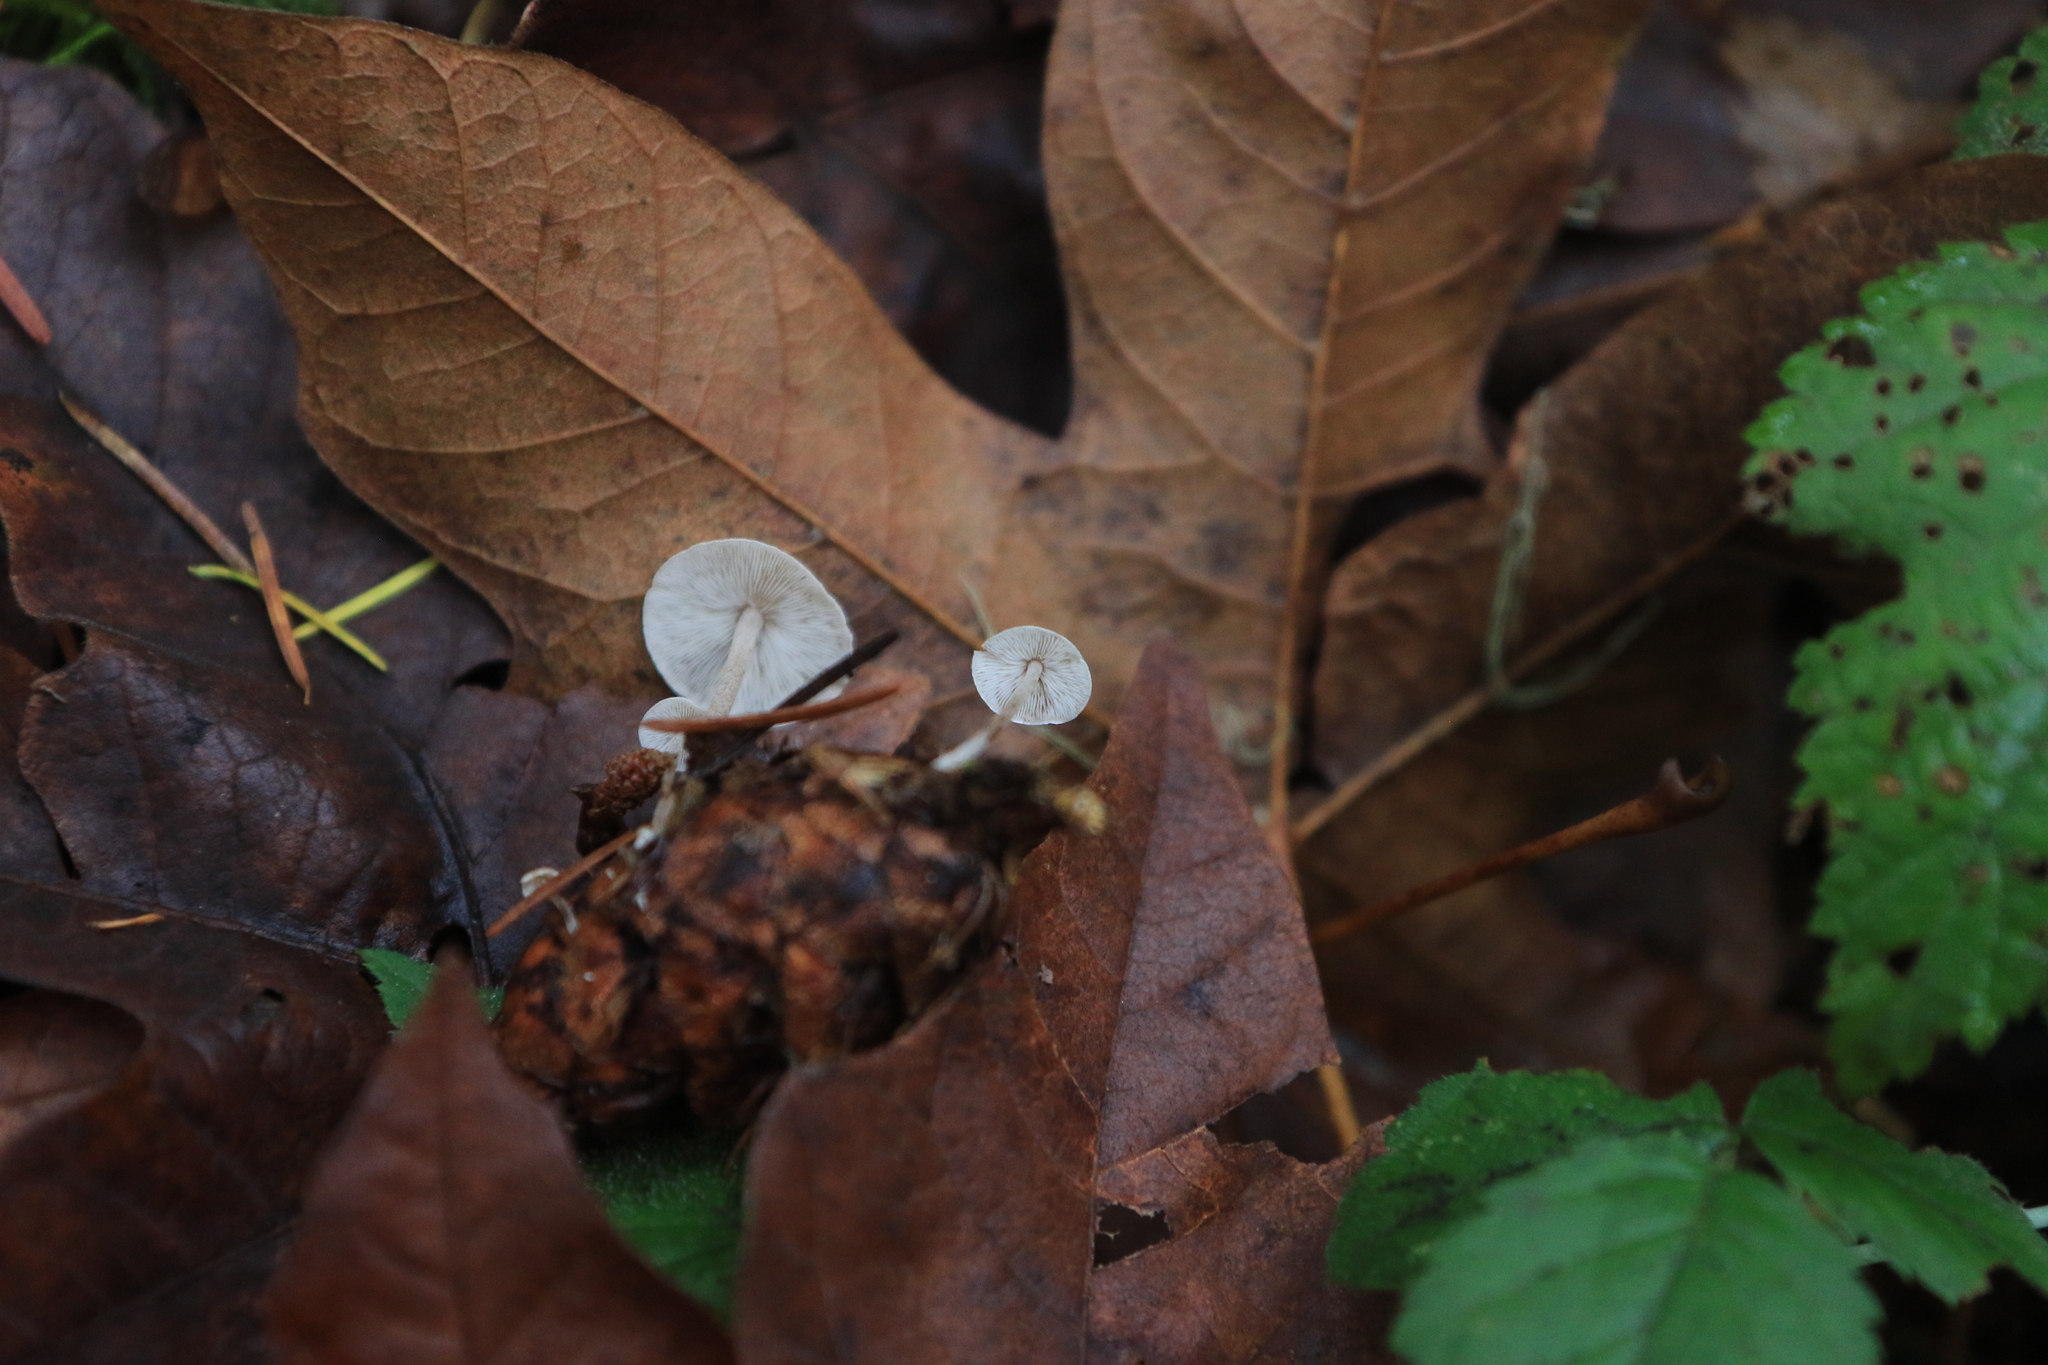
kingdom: Fungi
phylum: Basidiomycota
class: Agaricomycetes
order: Agaricales
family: Marasmiaceae
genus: Baeospora
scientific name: Baeospora myosura
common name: Conifercone cap
